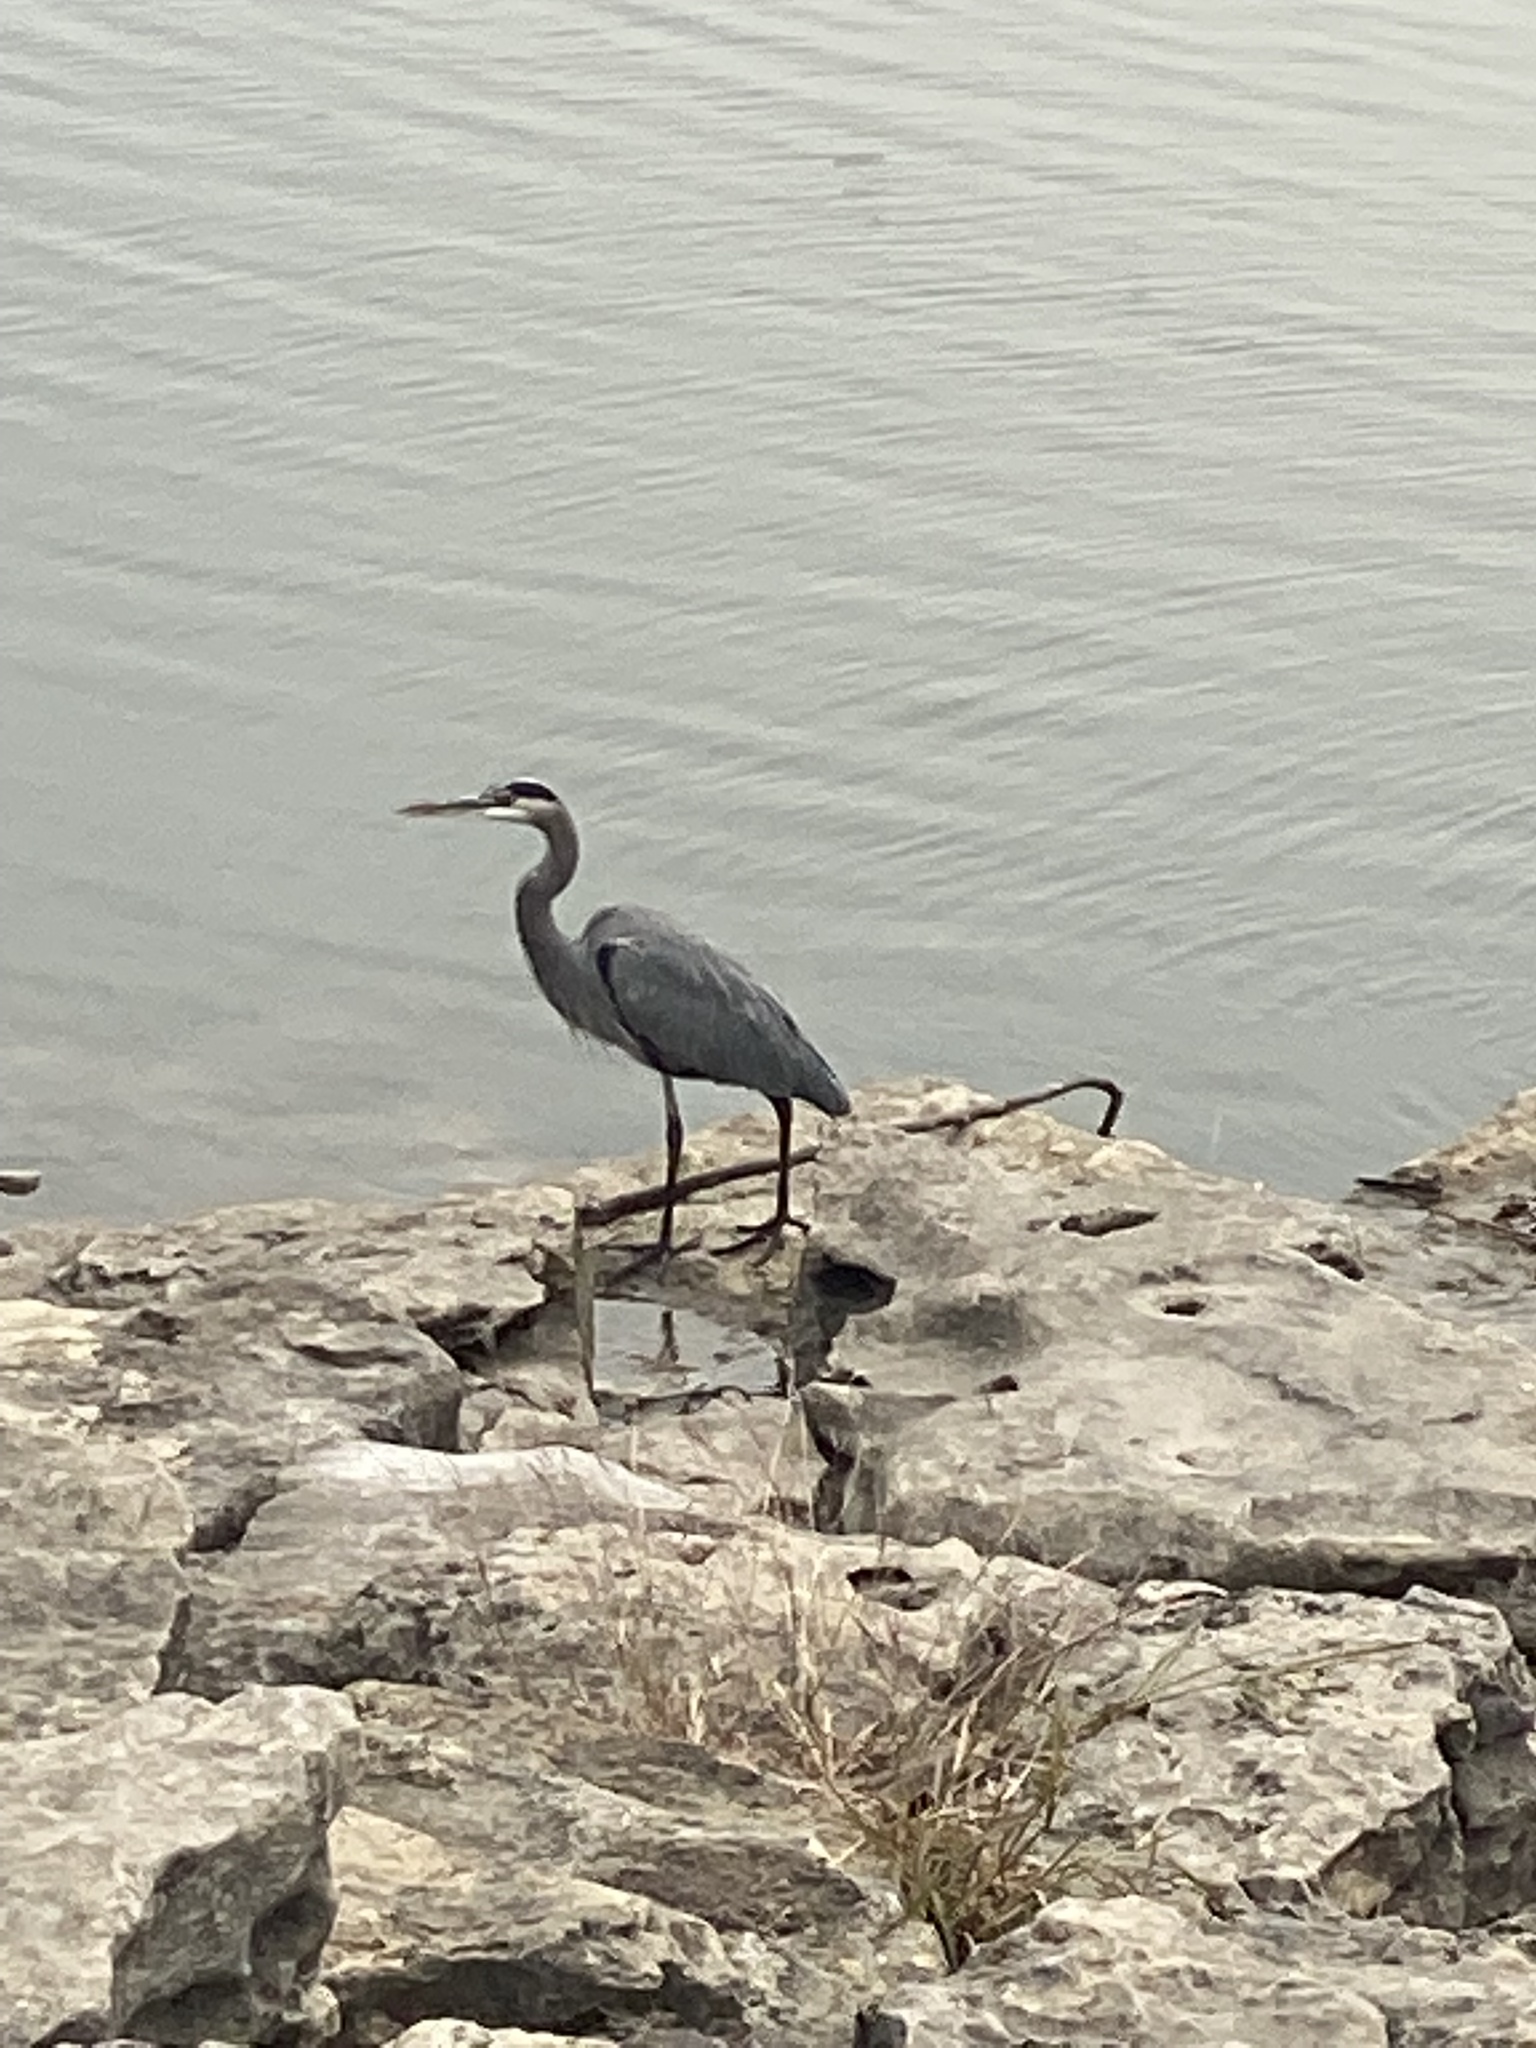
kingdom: Animalia
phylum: Chordata
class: Aves
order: Pelecaniformes
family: Ardeidae
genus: Ardea
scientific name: Ardea herodias
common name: Great blue heron
